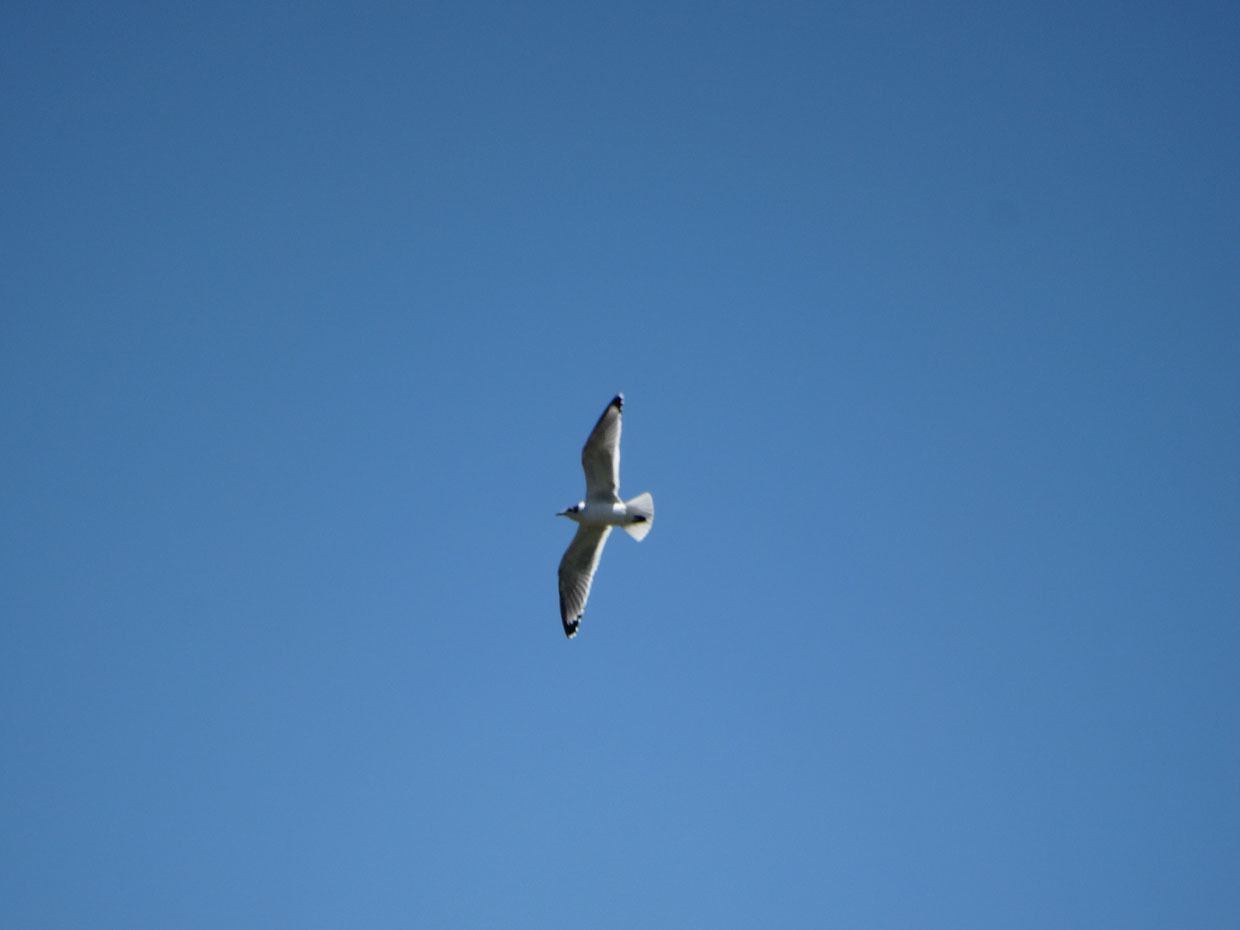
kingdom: Animalia
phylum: Chordata
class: Aves
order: Charadriiformes
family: Laridae
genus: Leucophaeus
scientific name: Leucophaeus pipixcan
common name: Franklin's gull
